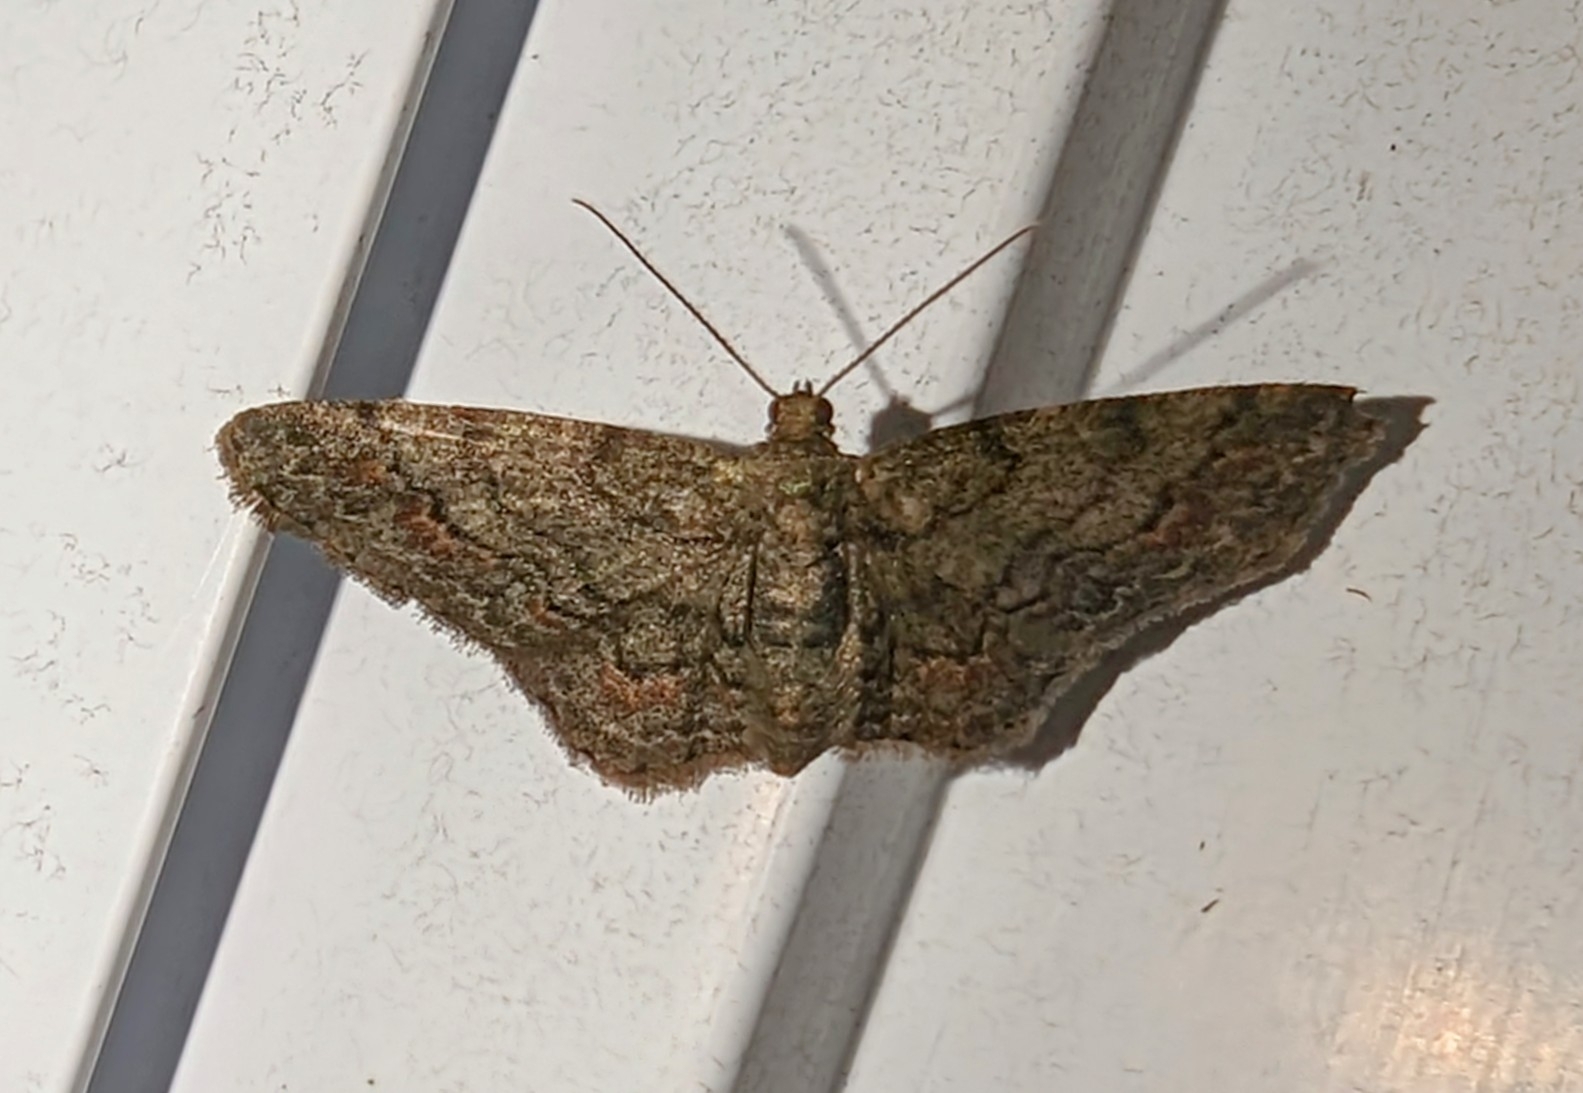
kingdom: Animalia
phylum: Arthropoda
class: Insecta
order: Lepidoptera
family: Geometridae
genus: Glenoides
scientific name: Glenoides texanaria
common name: Texas gray
